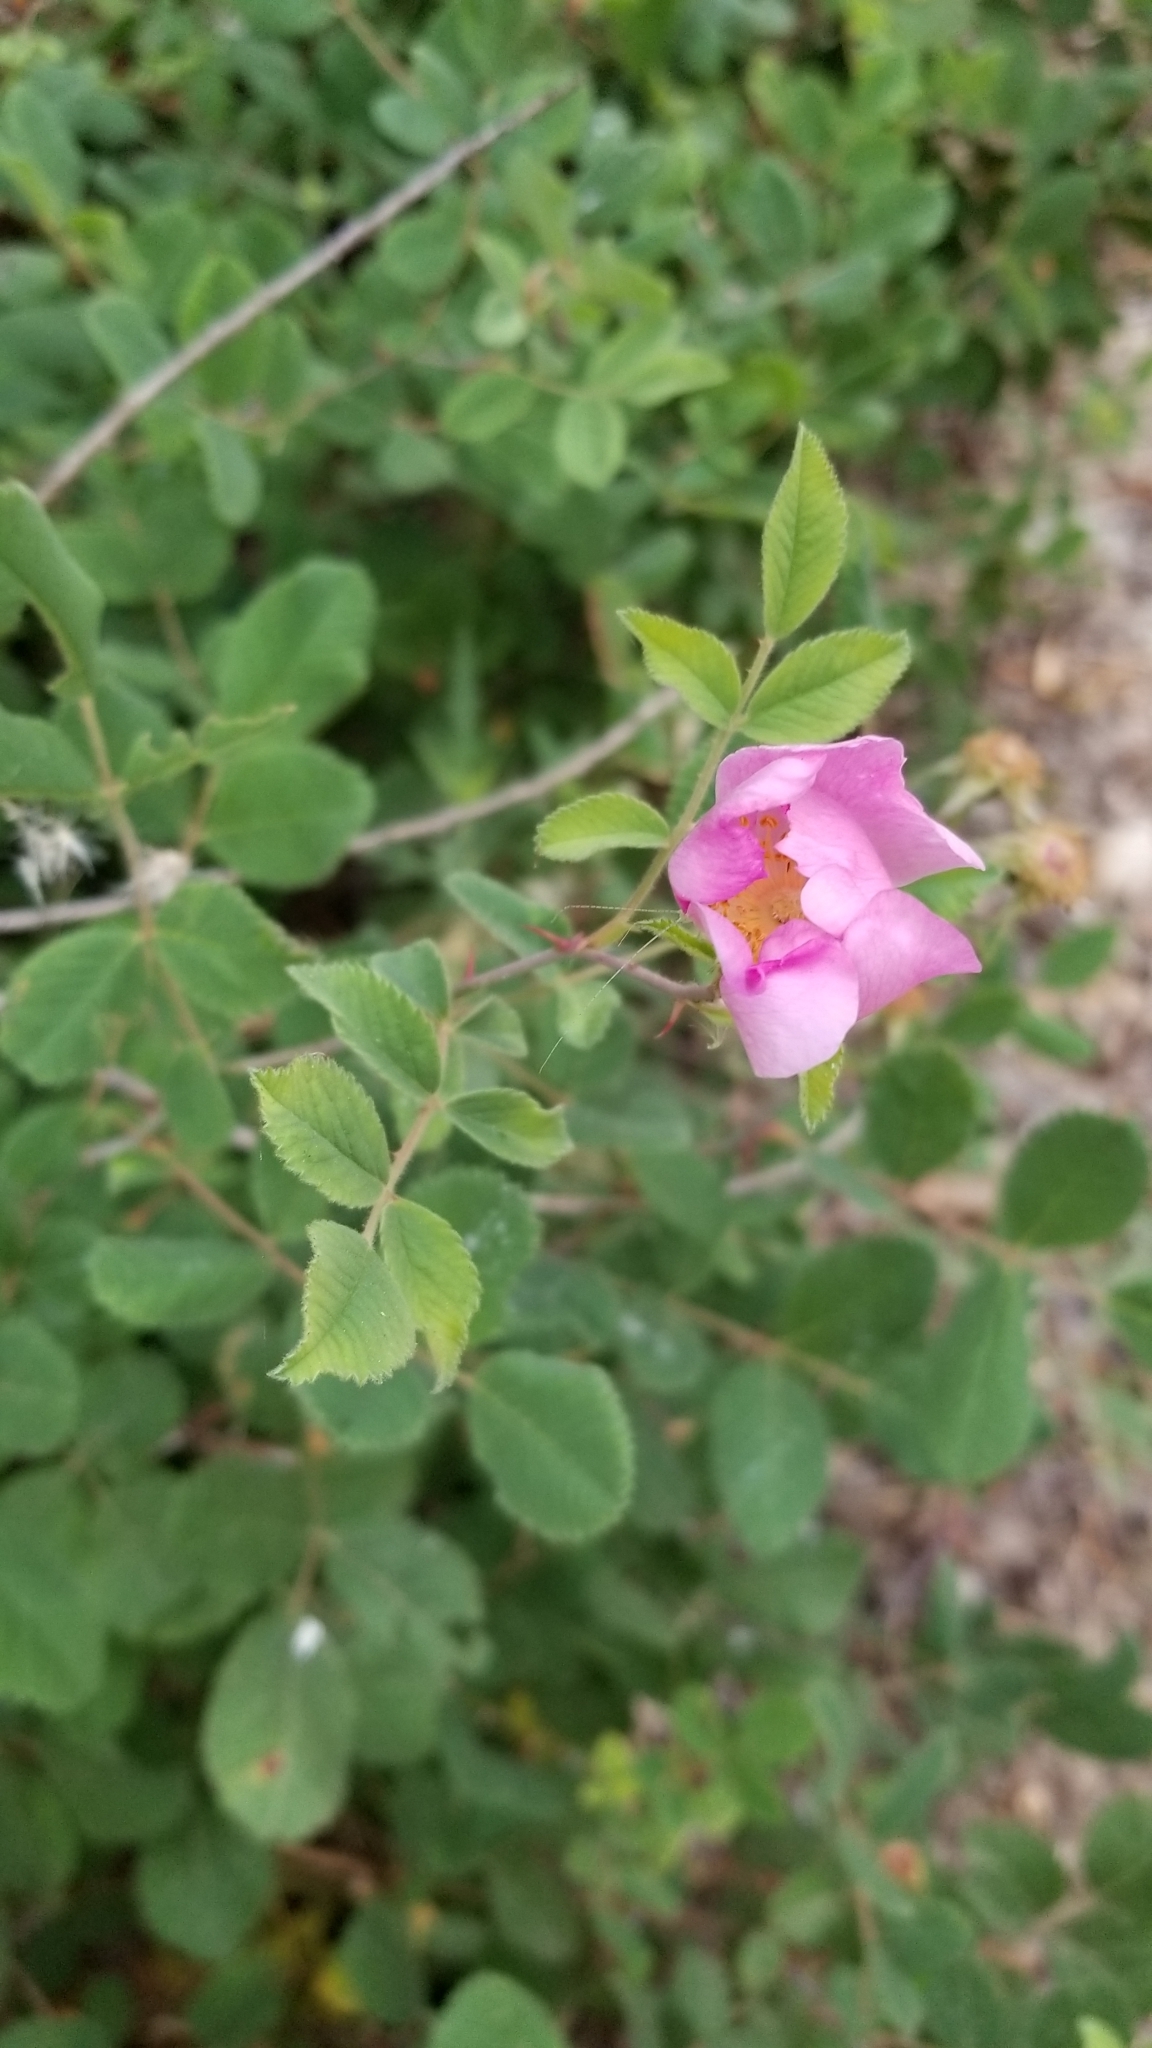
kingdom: Plantae
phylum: Tracheophyta
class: Magnoliopsida
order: Rosales
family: Rosaceae
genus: Rosa
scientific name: Rosa californica
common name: California rose
